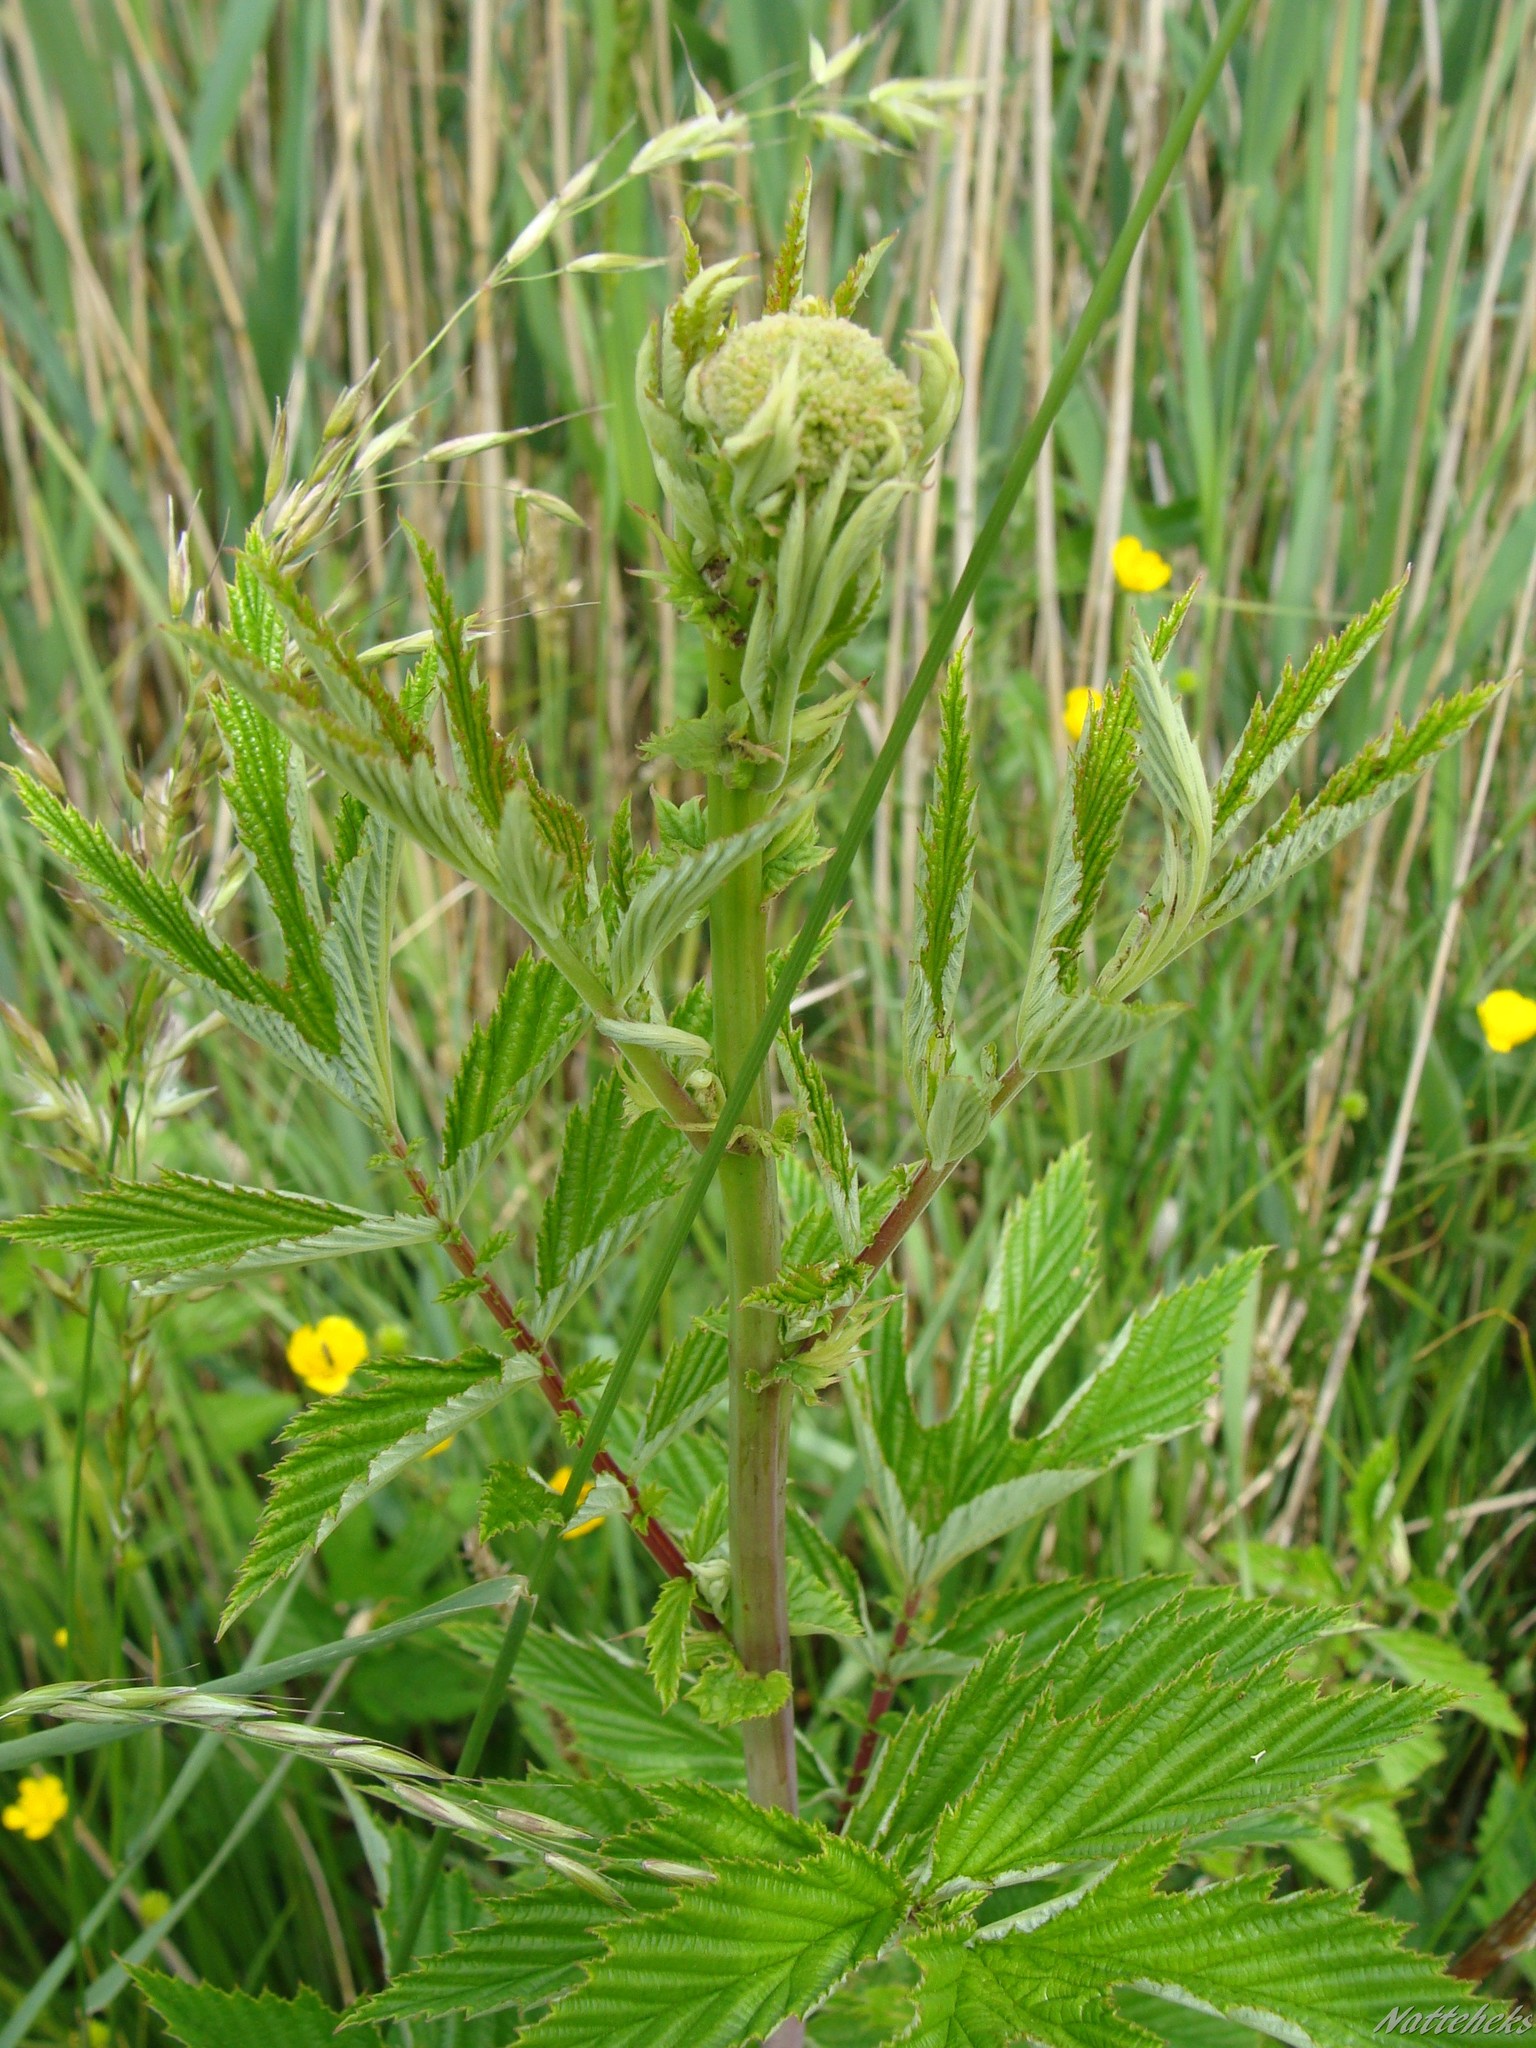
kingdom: Plantae
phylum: Tracheophyta
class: Magnoliopsida
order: Rosales
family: Rosaceae
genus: Filipendula
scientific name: Filipendula ulmaria
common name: Meadowsweet
